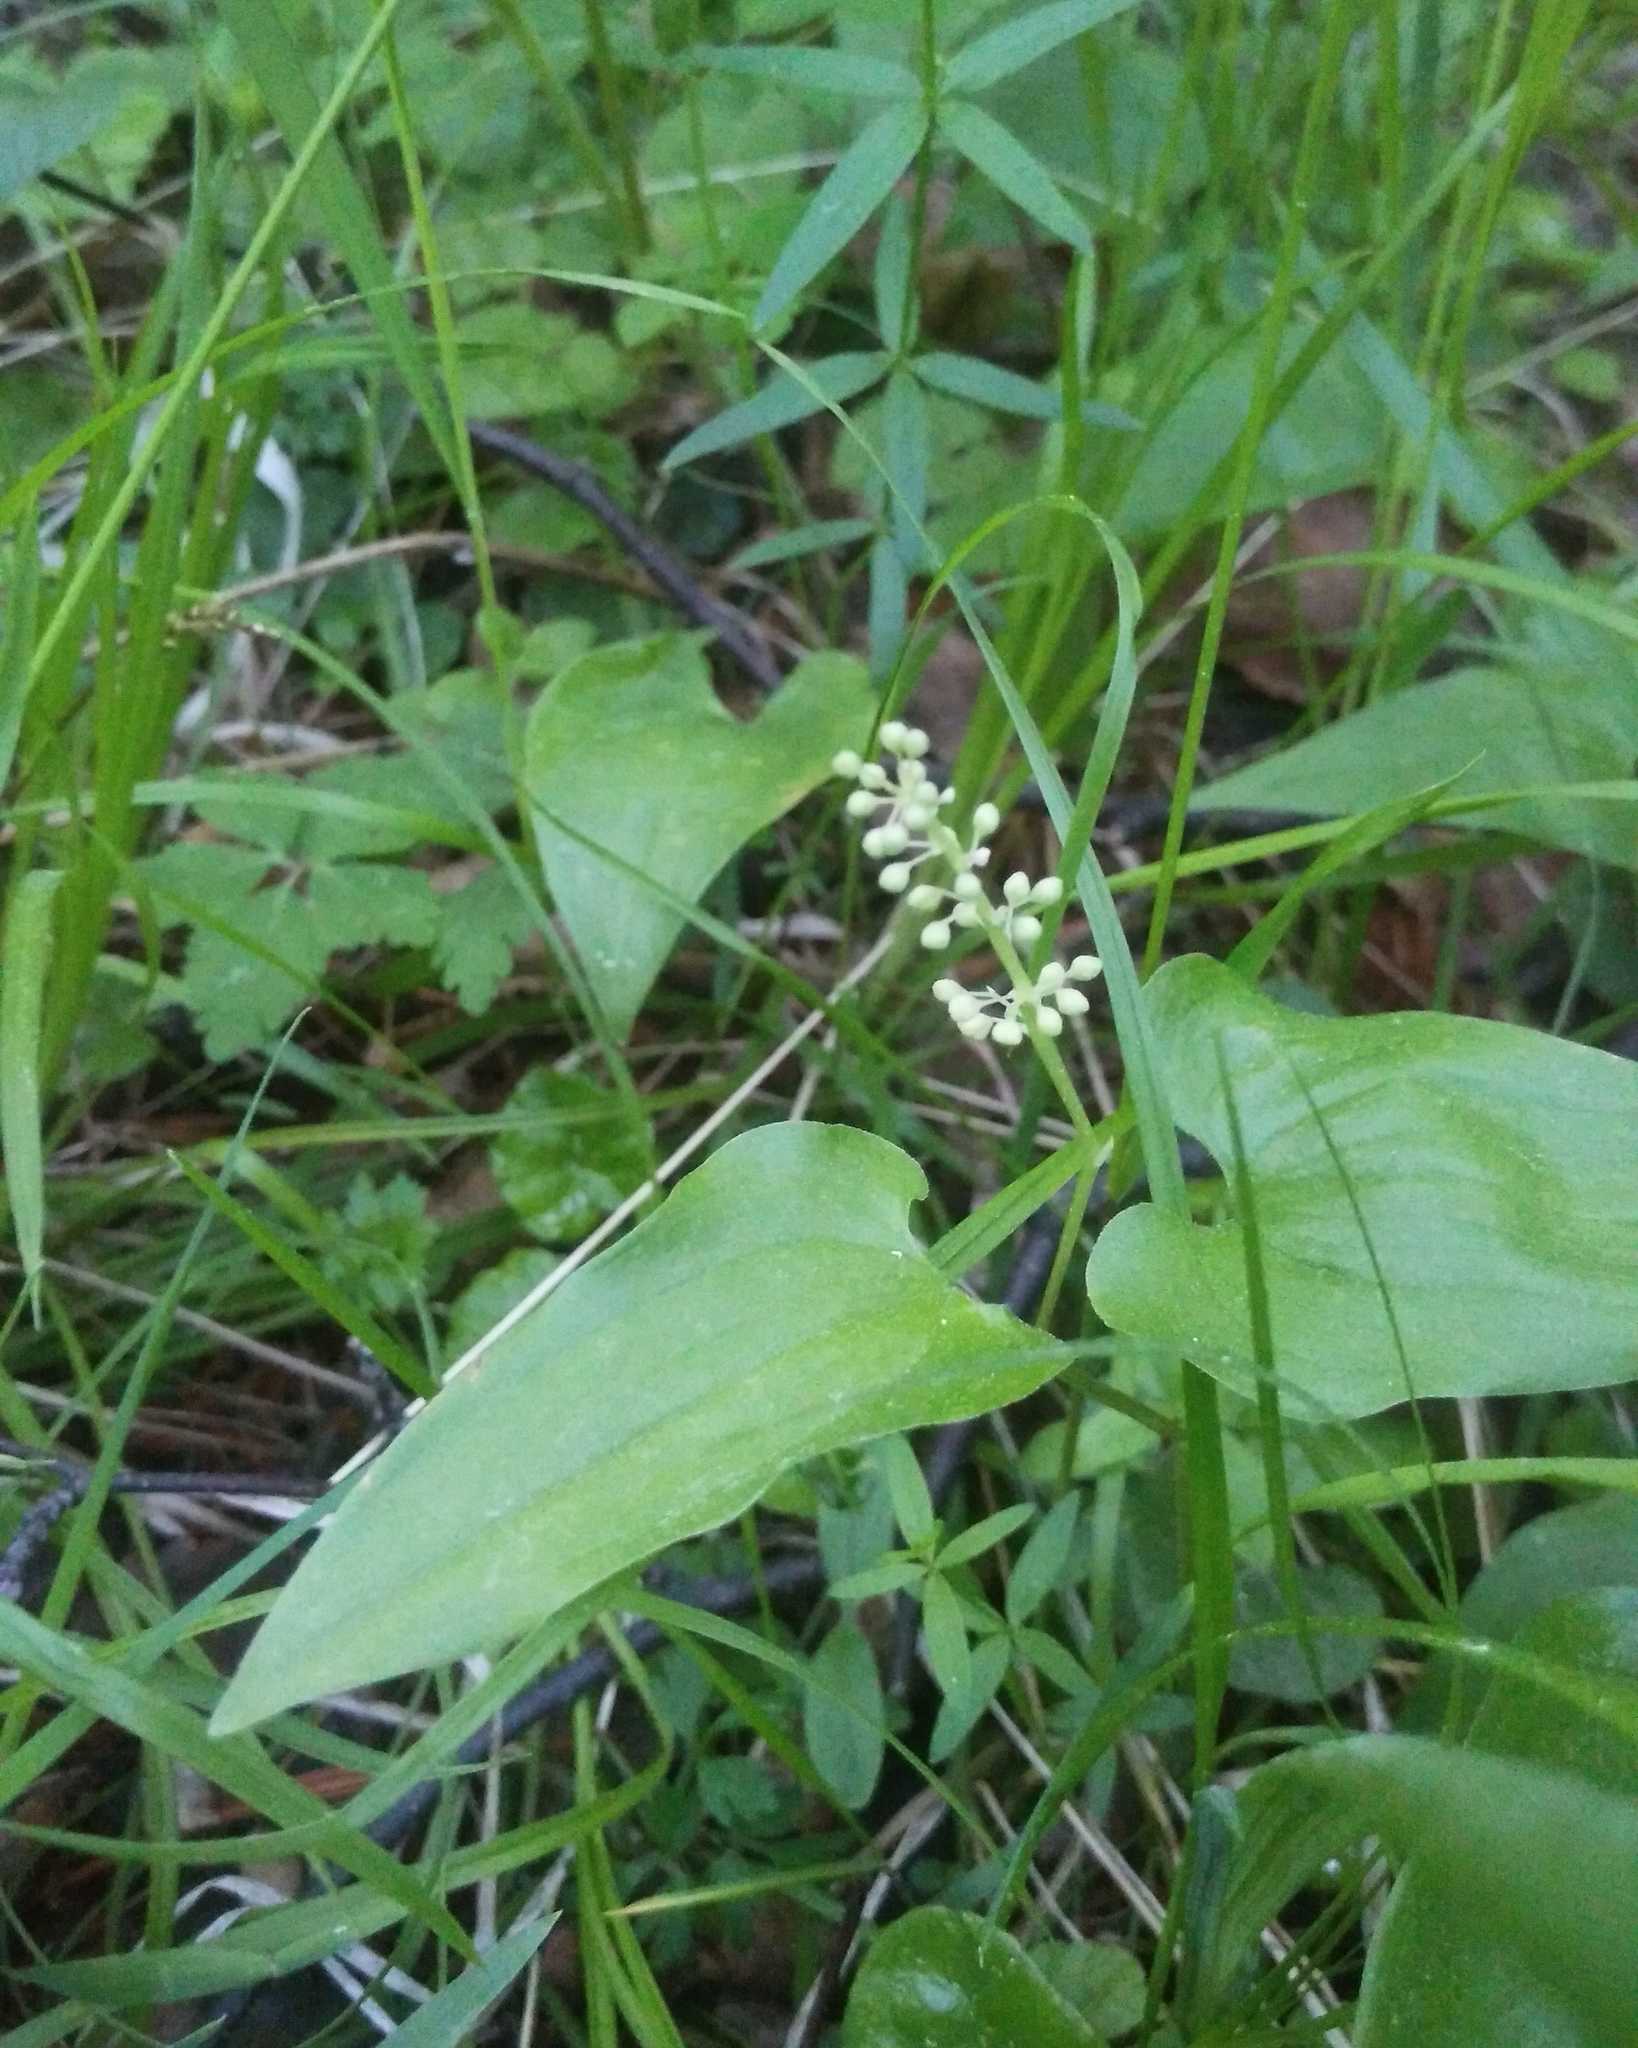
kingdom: Plantae
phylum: Tracheophyta
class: Liliopsida
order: Asparagales
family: Asparagaceae
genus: Maianthemum
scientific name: Maianthemum bifolium
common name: May lily
